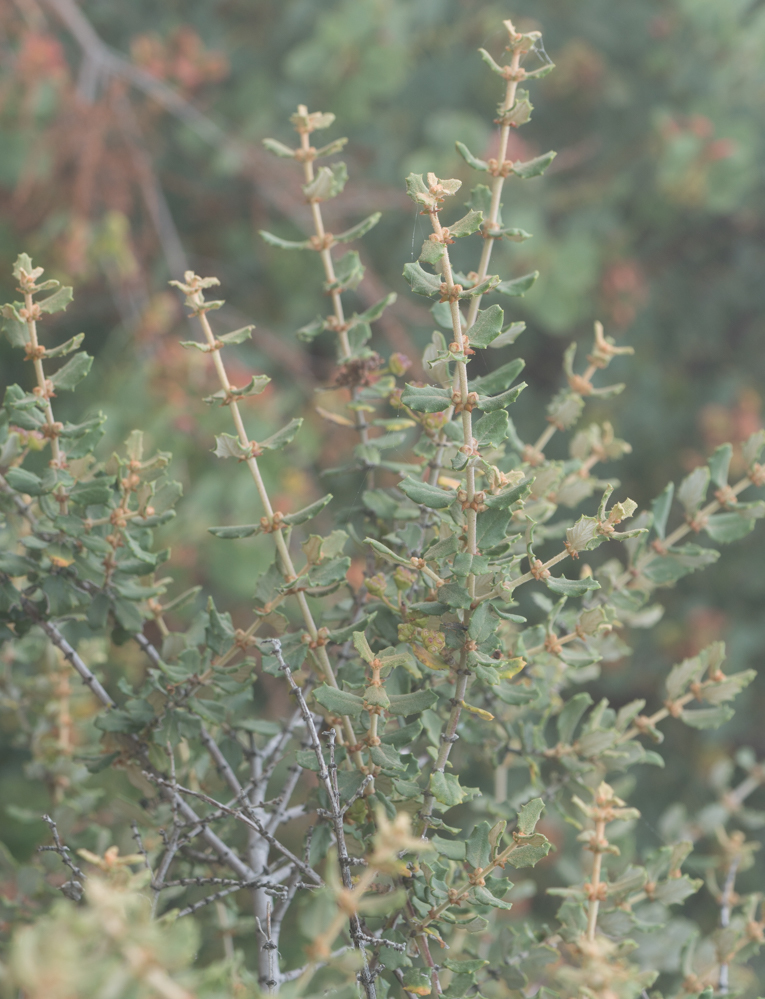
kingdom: Plantae
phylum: Tracheophyta
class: Magnoliopsida
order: Rosales
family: Rhamnaceae
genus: Ceanothus
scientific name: Ceanothus crassifolius
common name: Hoaryleaf ceanothus
